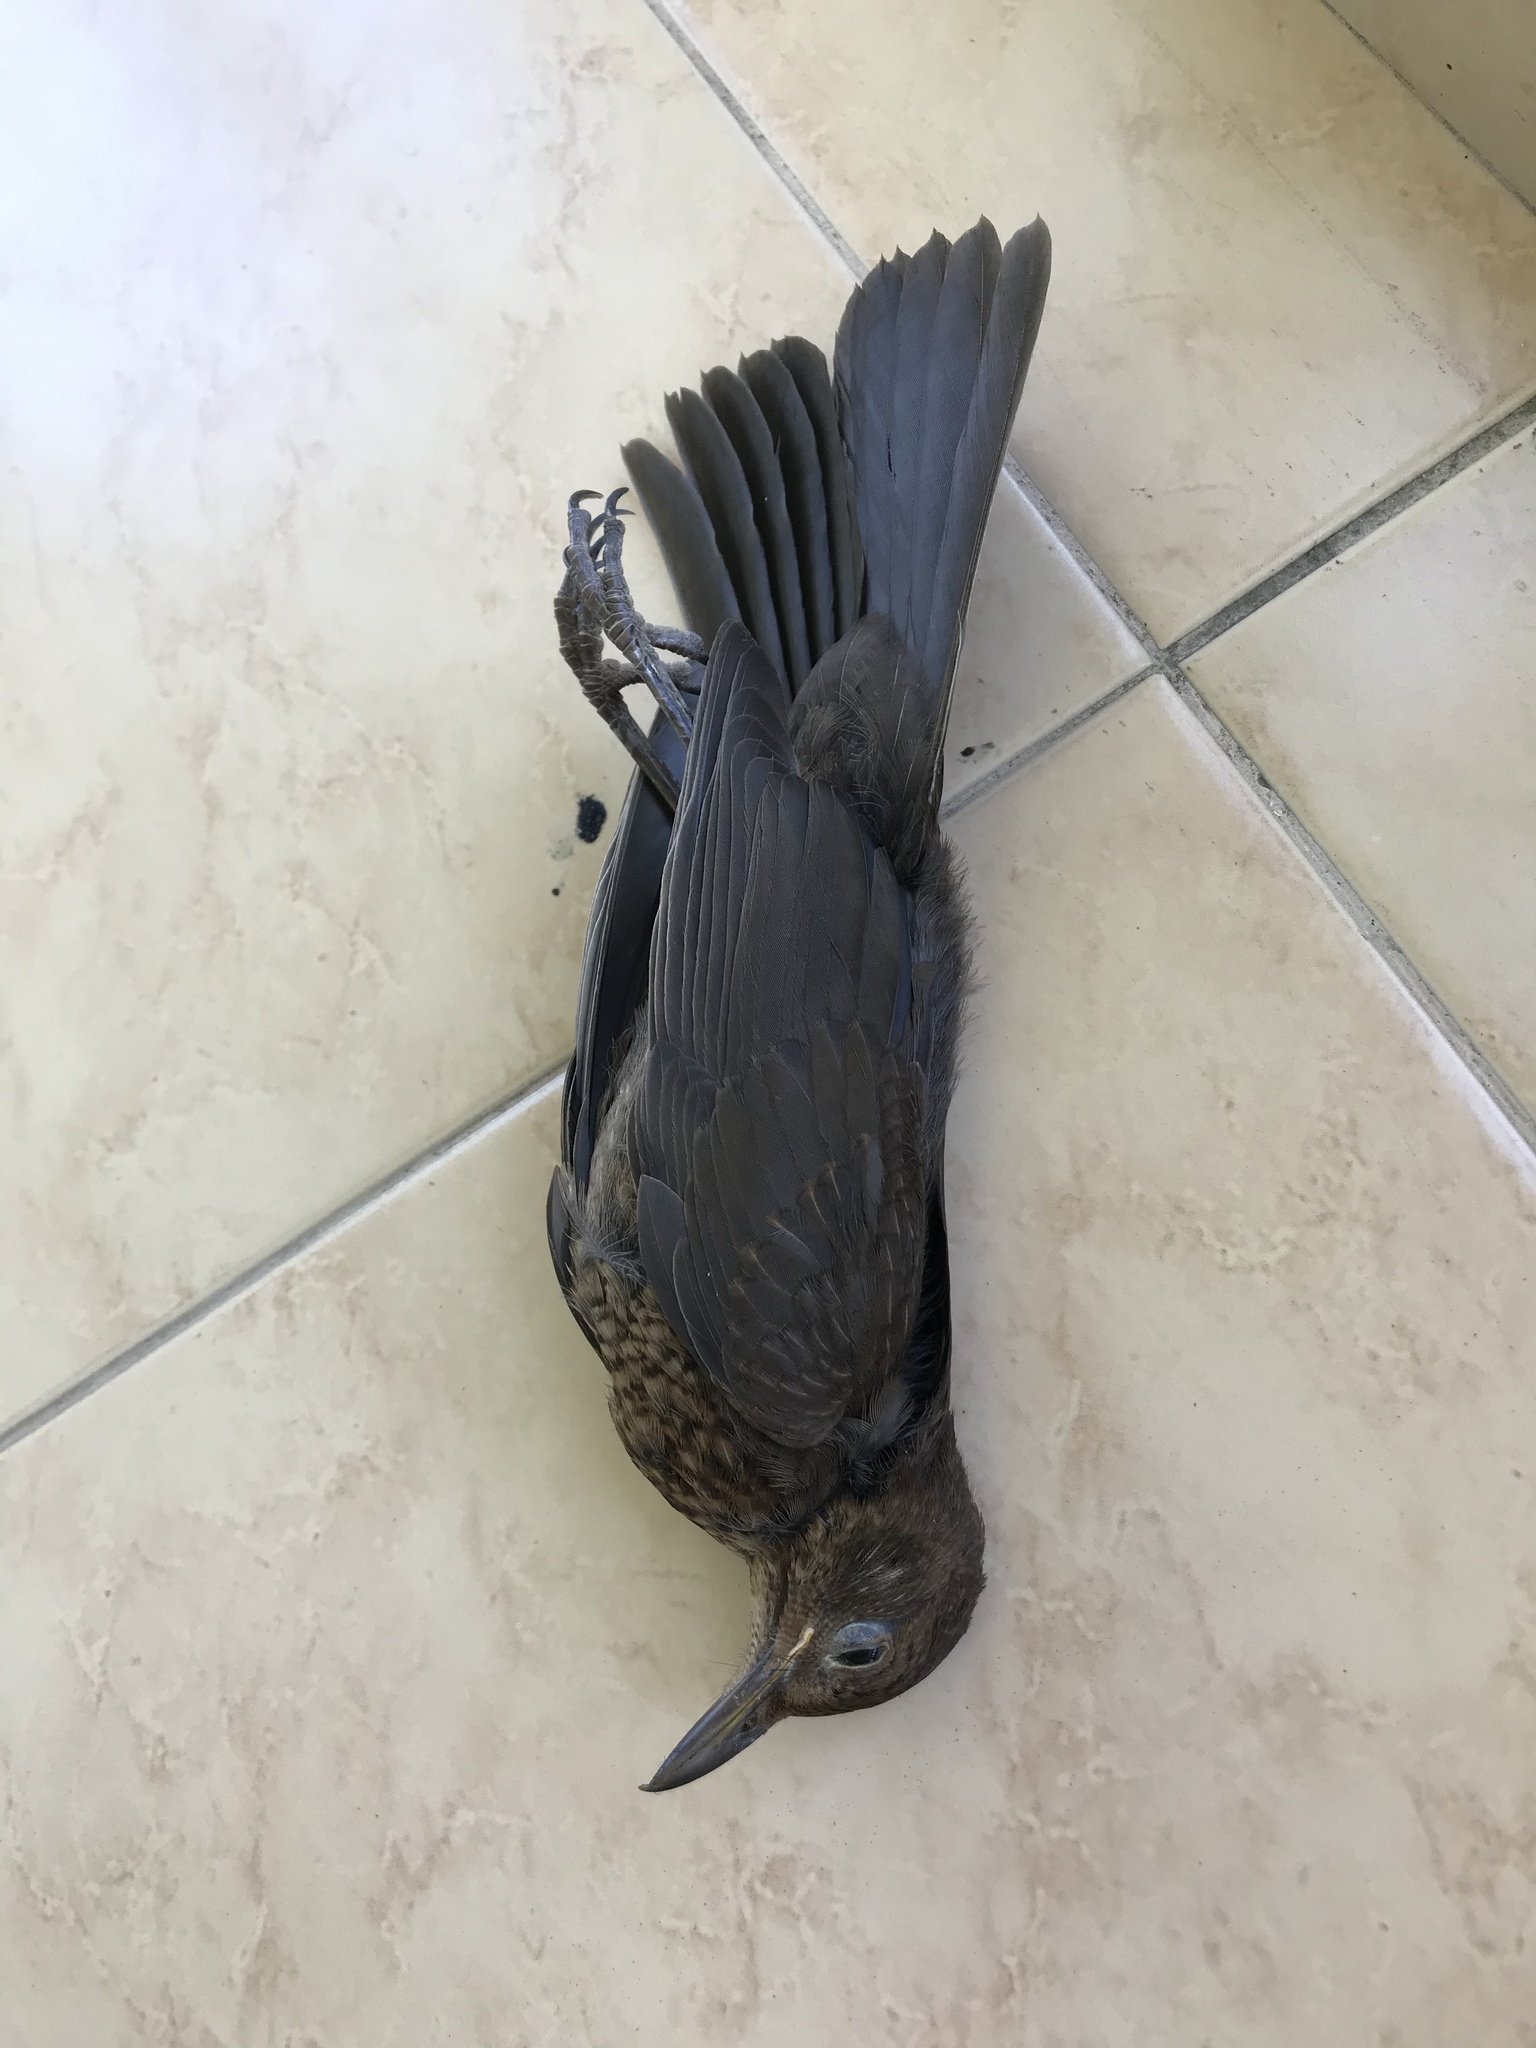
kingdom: Animalia
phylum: Chordata
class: Aves
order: Passeriformes
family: Turdidae
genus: Turdus
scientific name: Turdus merula
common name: Common blackbird
